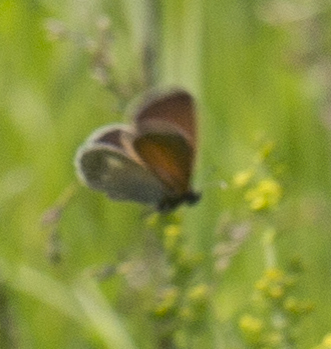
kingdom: Animalia
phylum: Arthropoda
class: Insecta
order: Lepidoptera
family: Nymphalidae
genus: Coenonympha
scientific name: Coenonympha iphis
